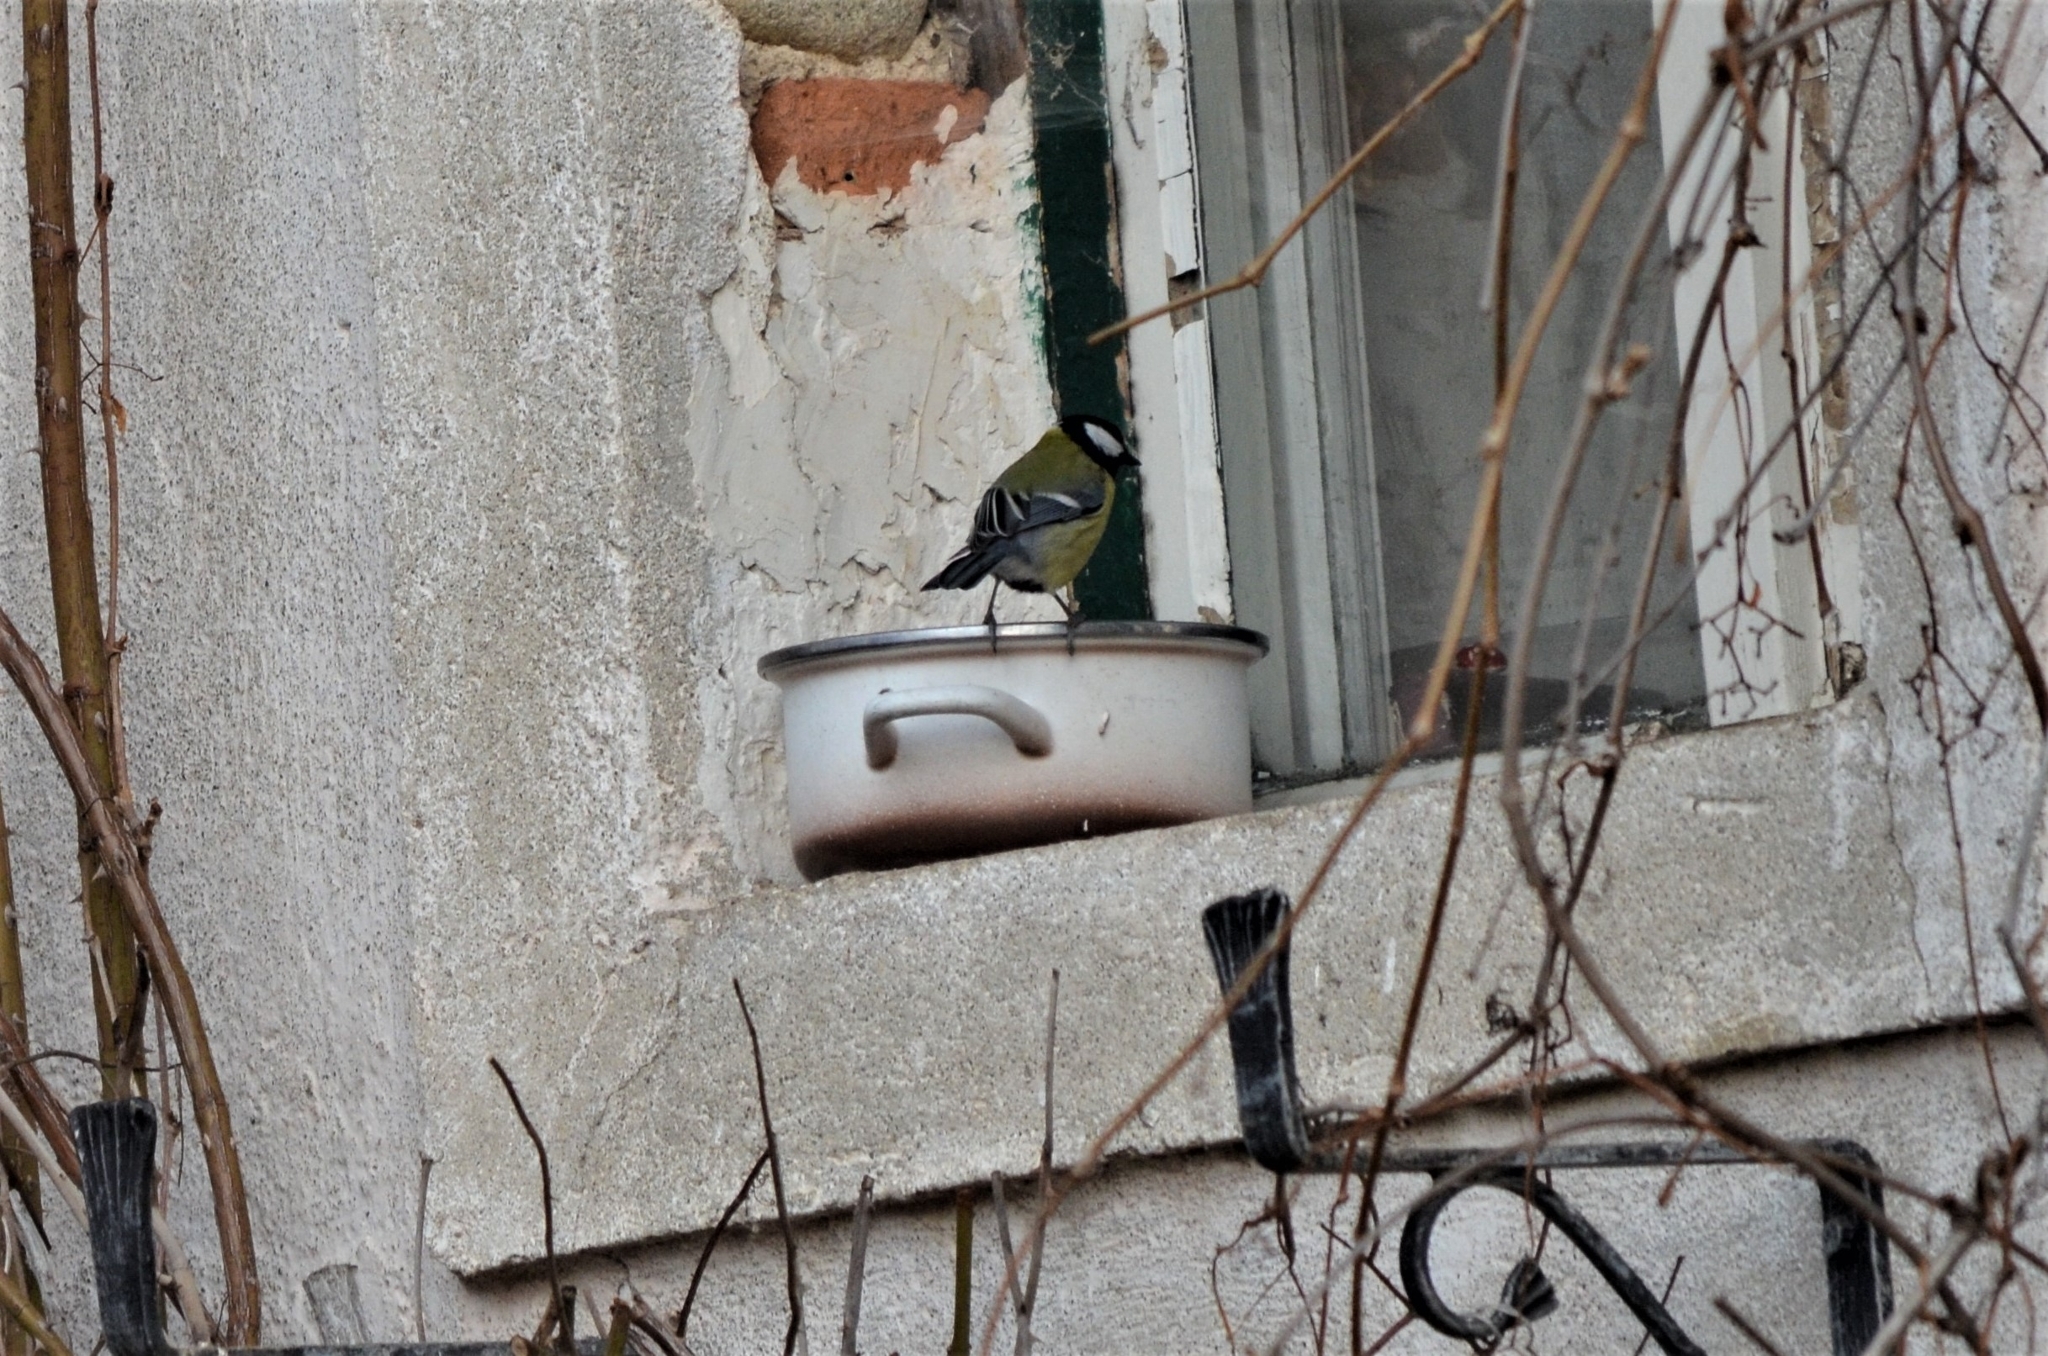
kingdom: Animalia
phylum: Chordata
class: Aves
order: Passeriformes
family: Paridae
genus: Parus
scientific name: Parus major
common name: Great tit
